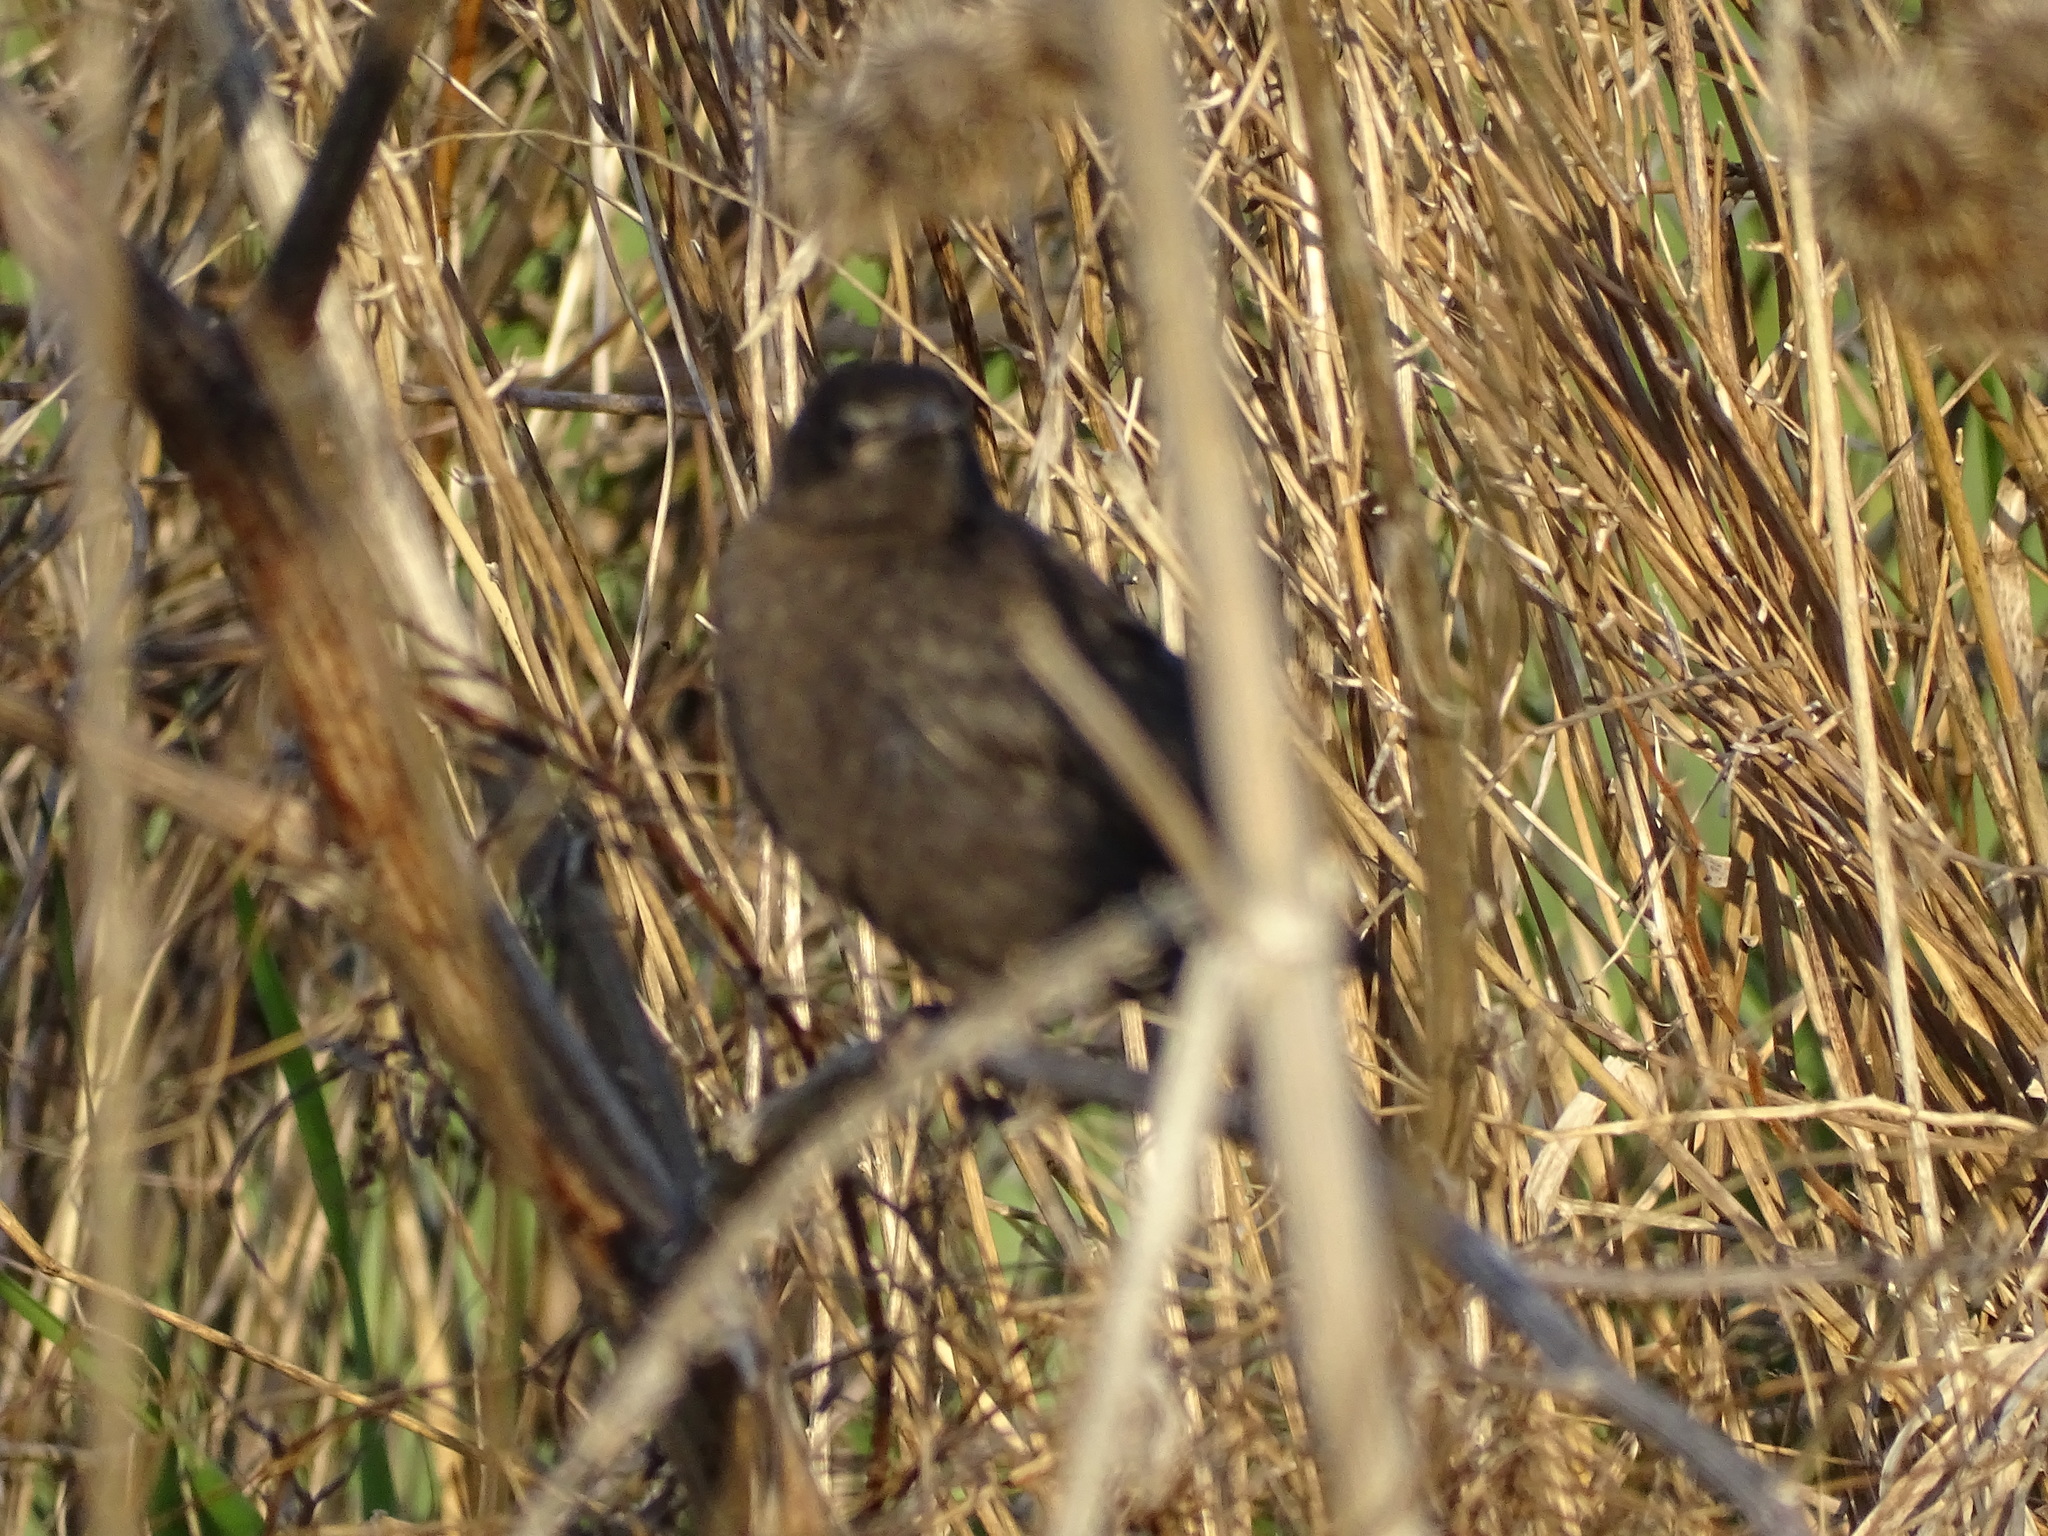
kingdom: Animalia
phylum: Chordata
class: Aves
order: Passeriformes
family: Icteridae
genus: Quiscalus
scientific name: Quiscalus quiscula
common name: Common grackle
